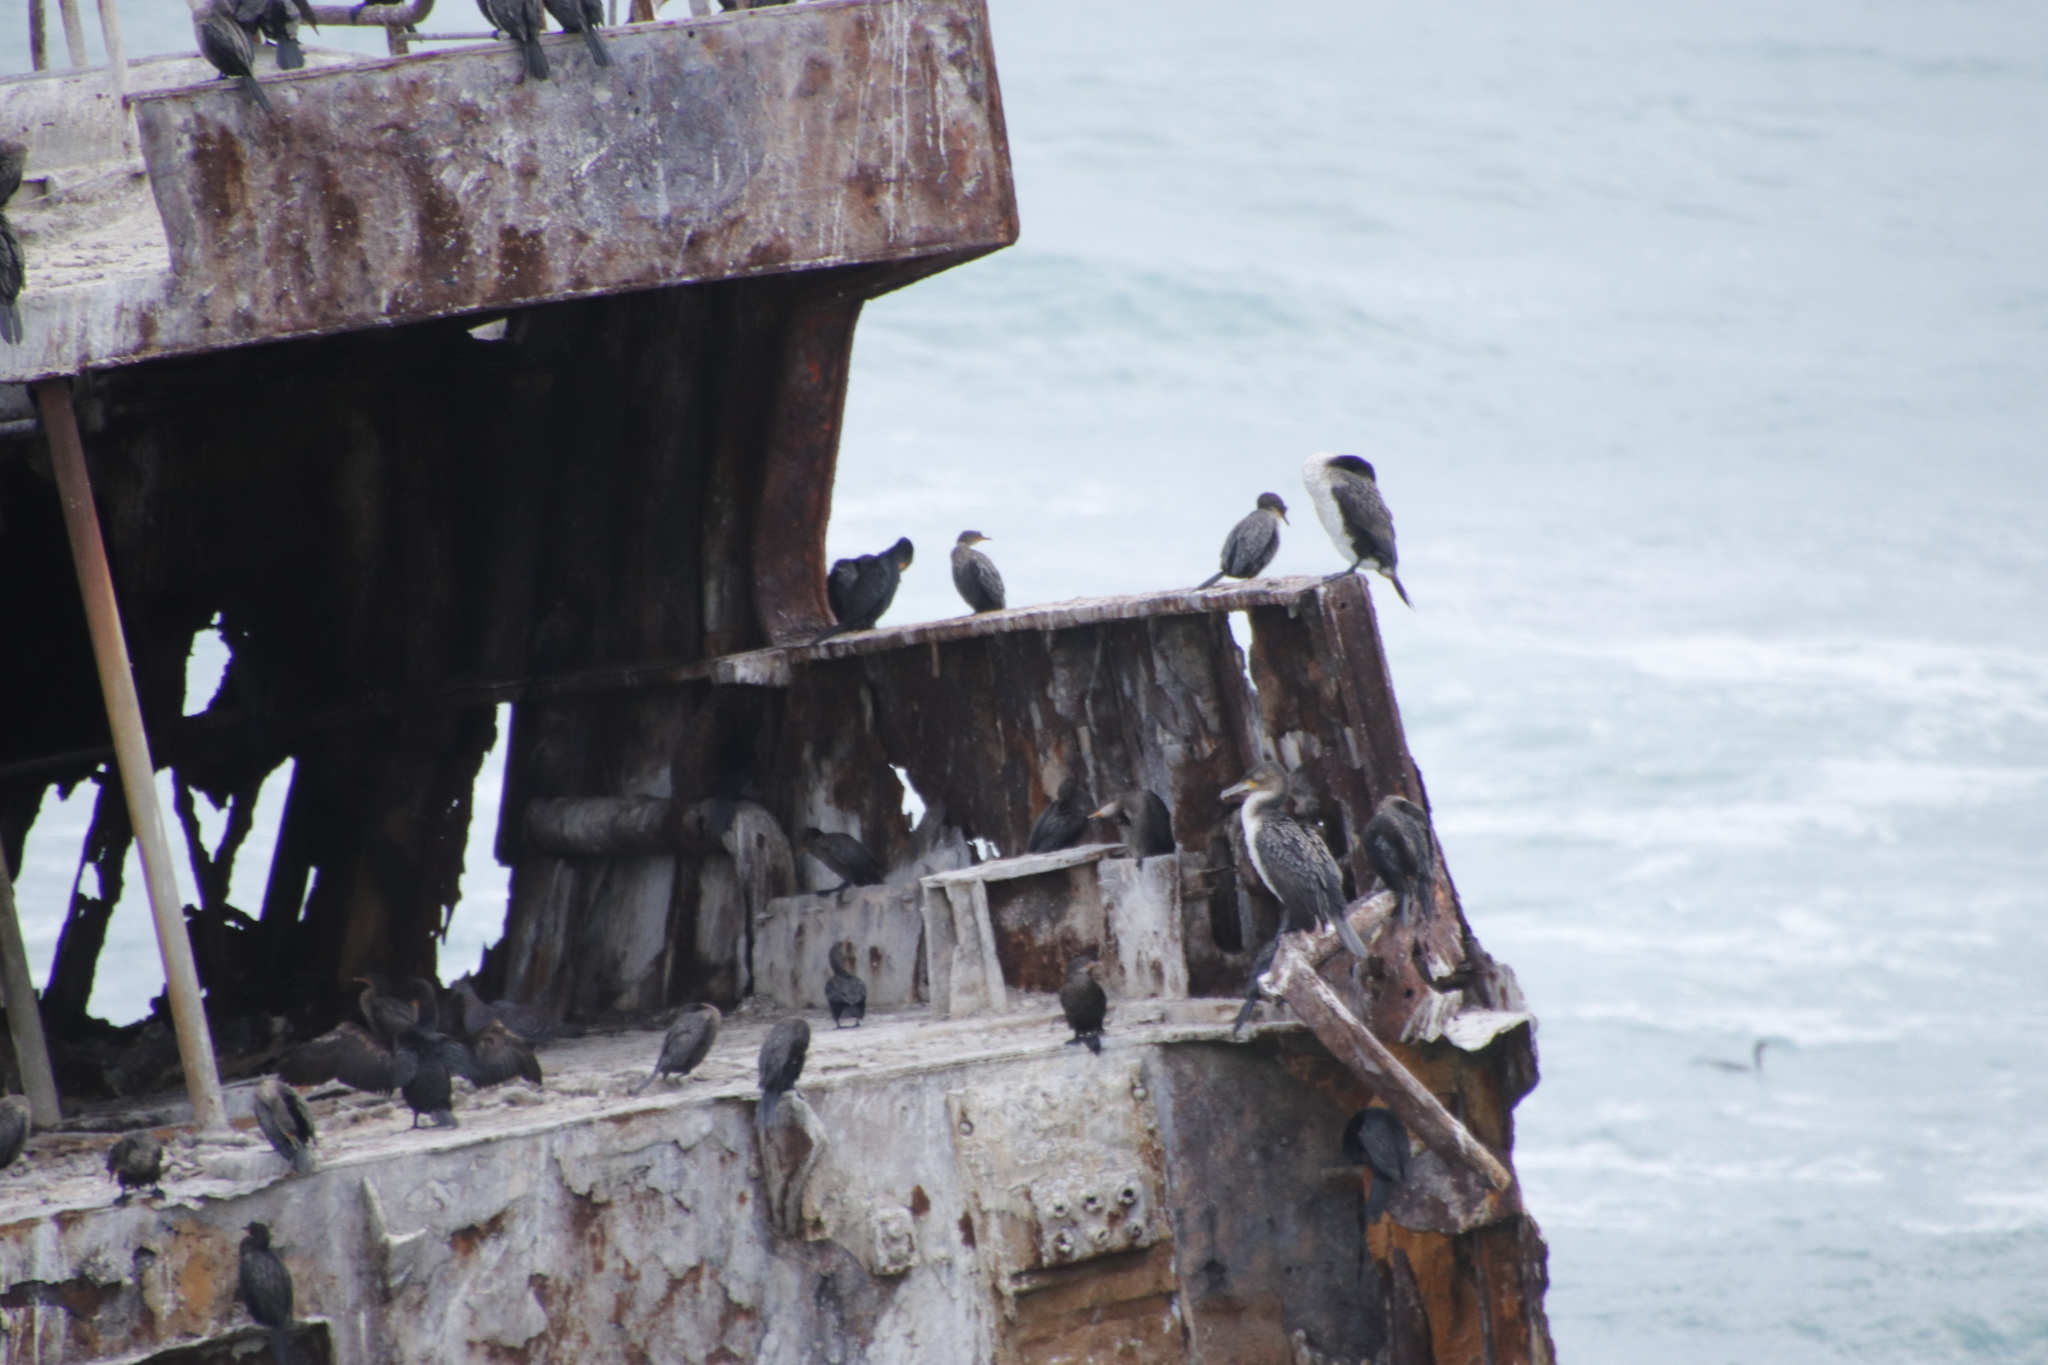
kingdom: Animalia
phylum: Chordata
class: Aves
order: Suliformes
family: Phalacrocoracidae
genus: Microcarbo
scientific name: Microcarbo coronatus
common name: Crowned cormorant
